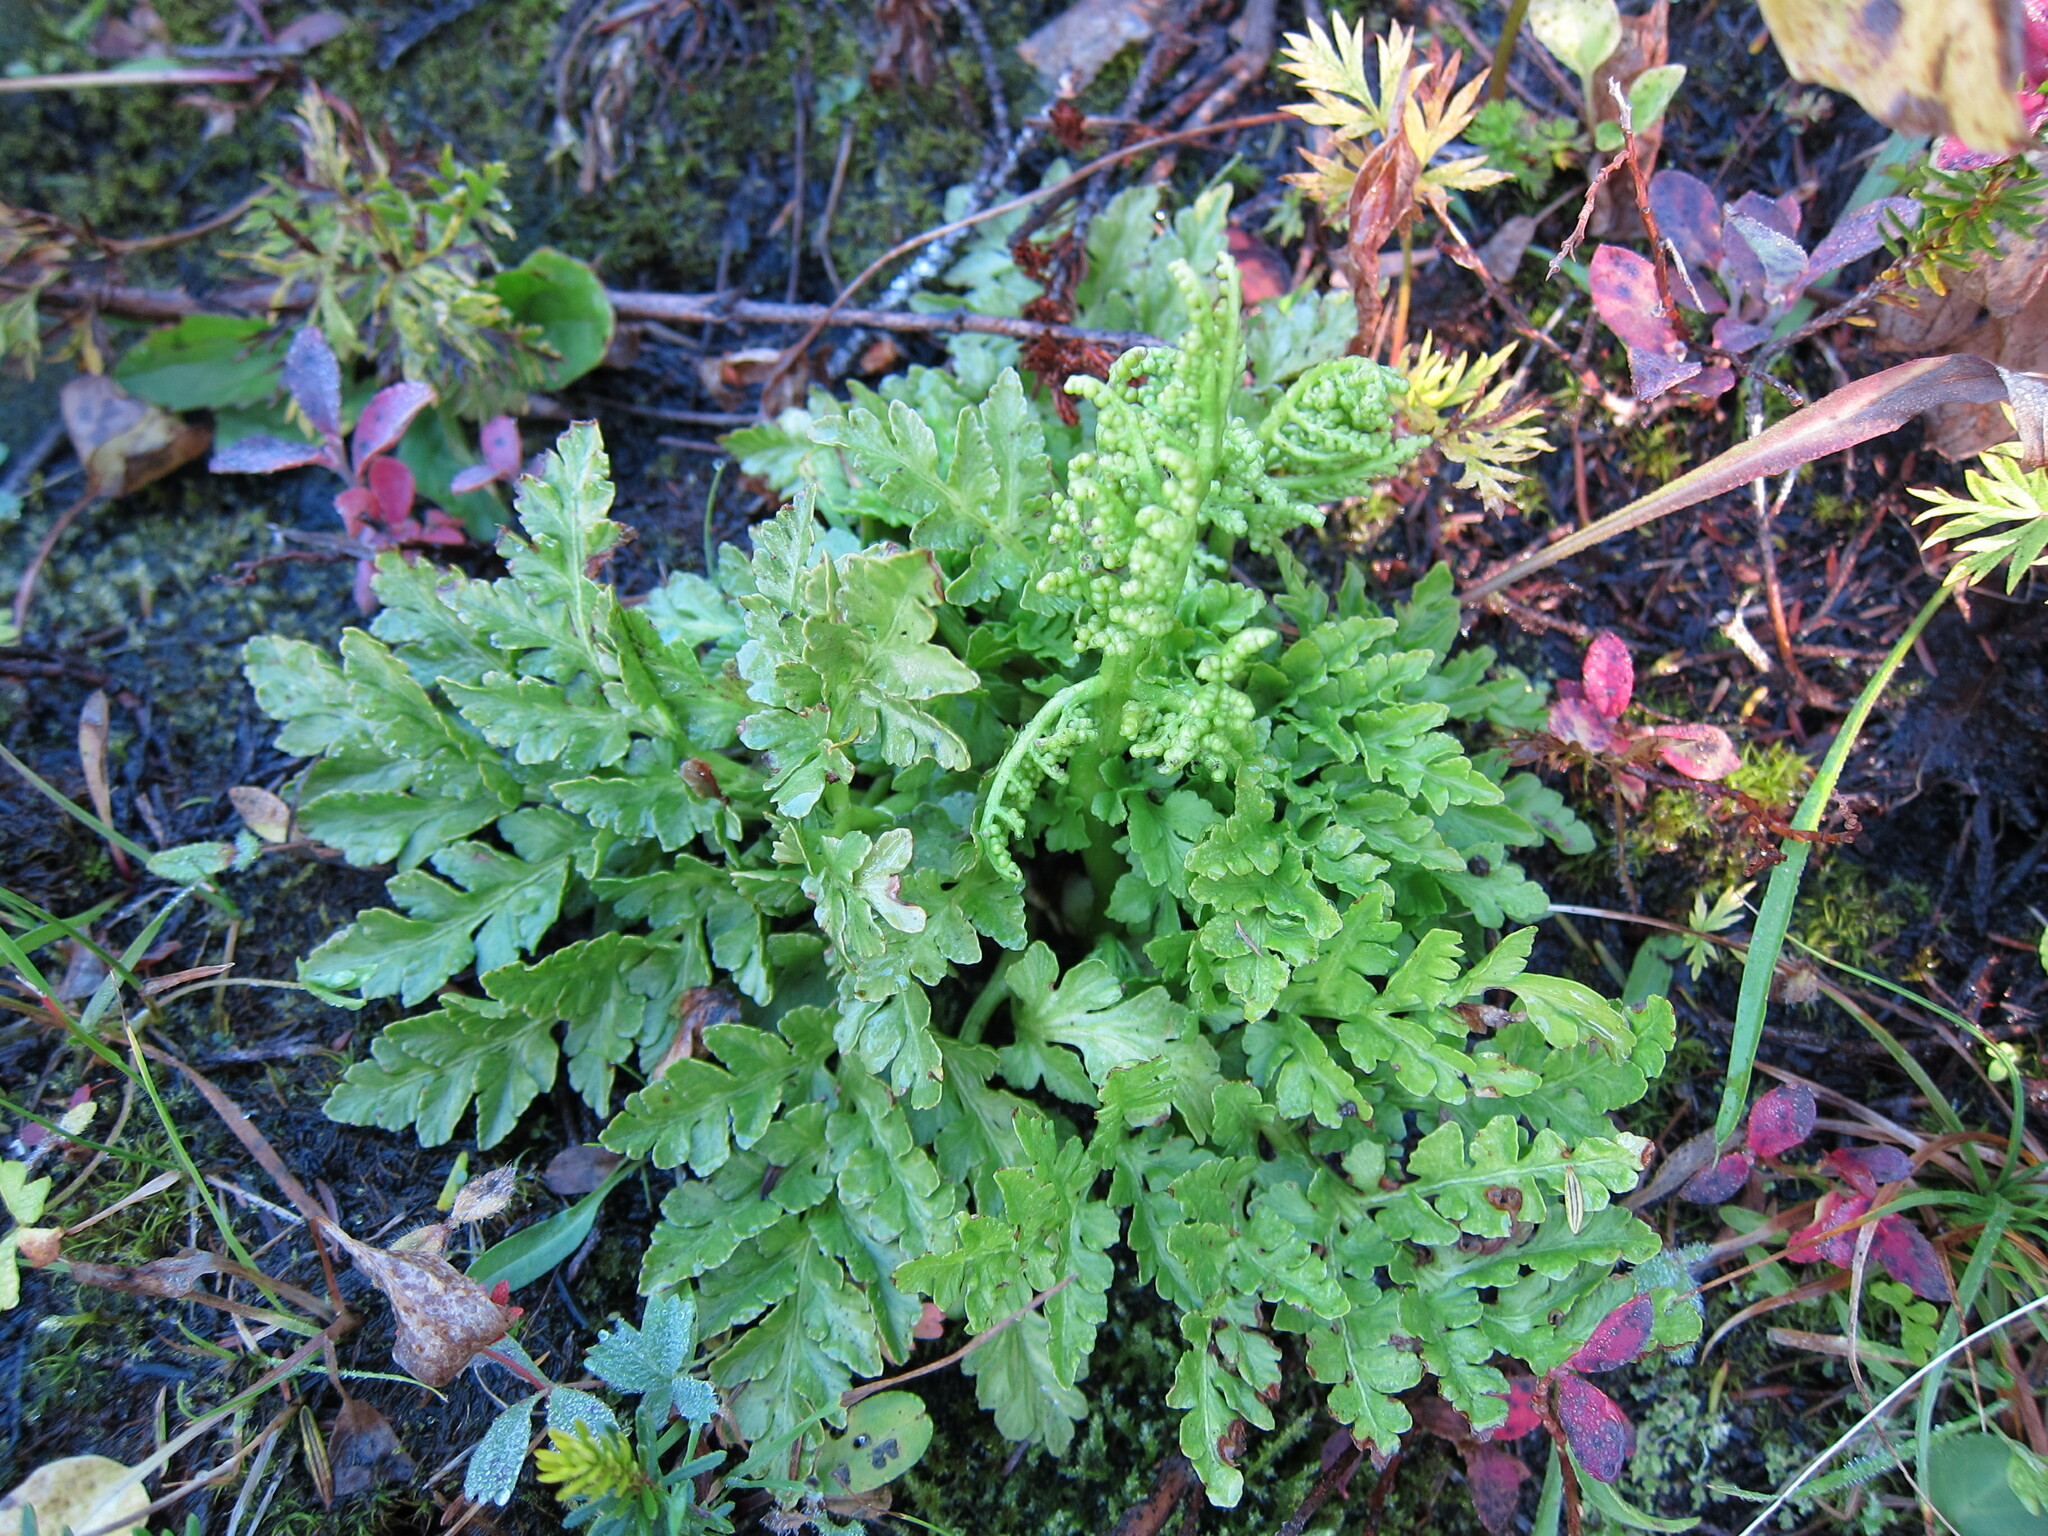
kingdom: Plantae
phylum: Tracheophyta
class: Polypodiopsida
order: Ophioglossales
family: Ophioglossaceae
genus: Sceptridium
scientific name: Sceptridium multifidum
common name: Leathery grape fern
